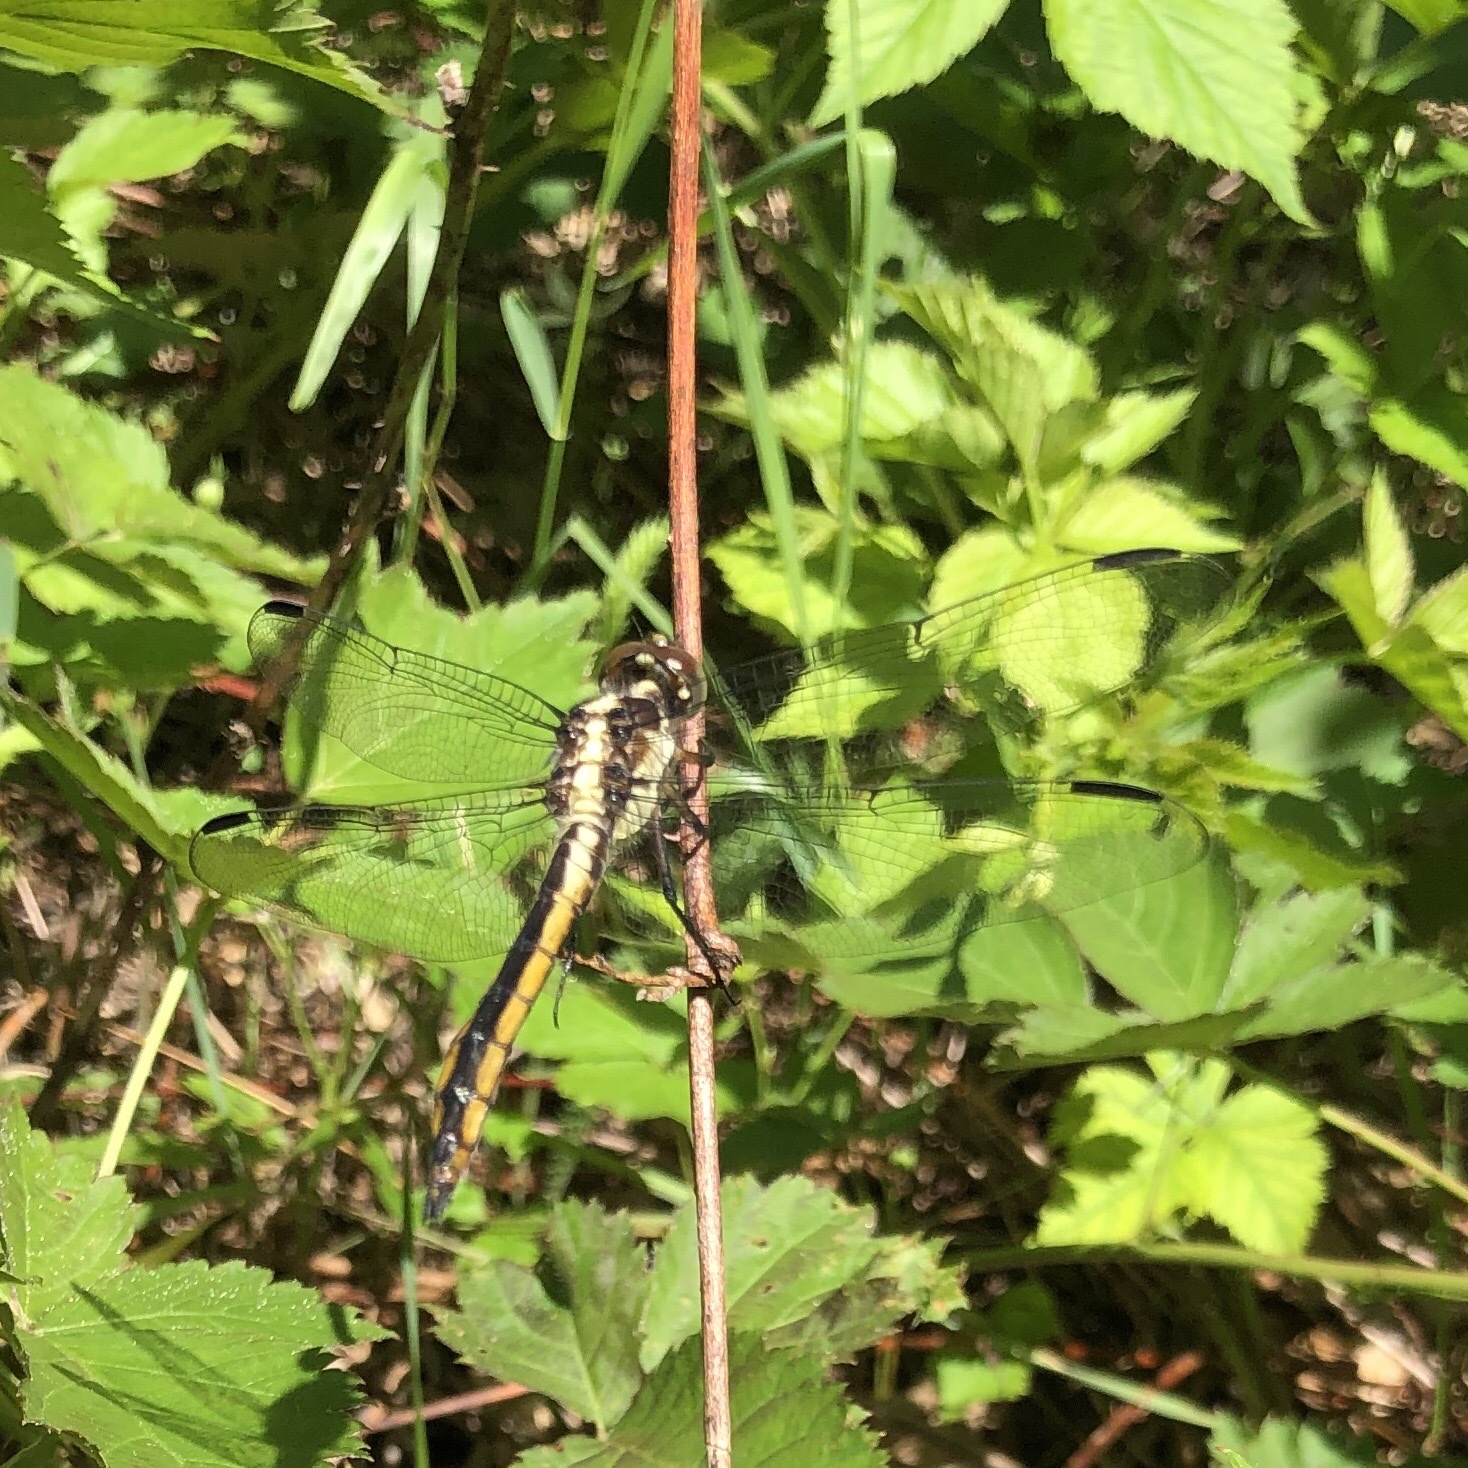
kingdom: Animalia
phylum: Arthropoda
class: Insecta
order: Odonata
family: Libellulidae
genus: Libellula
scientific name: Libellula incesta
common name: Slaty skimmer
